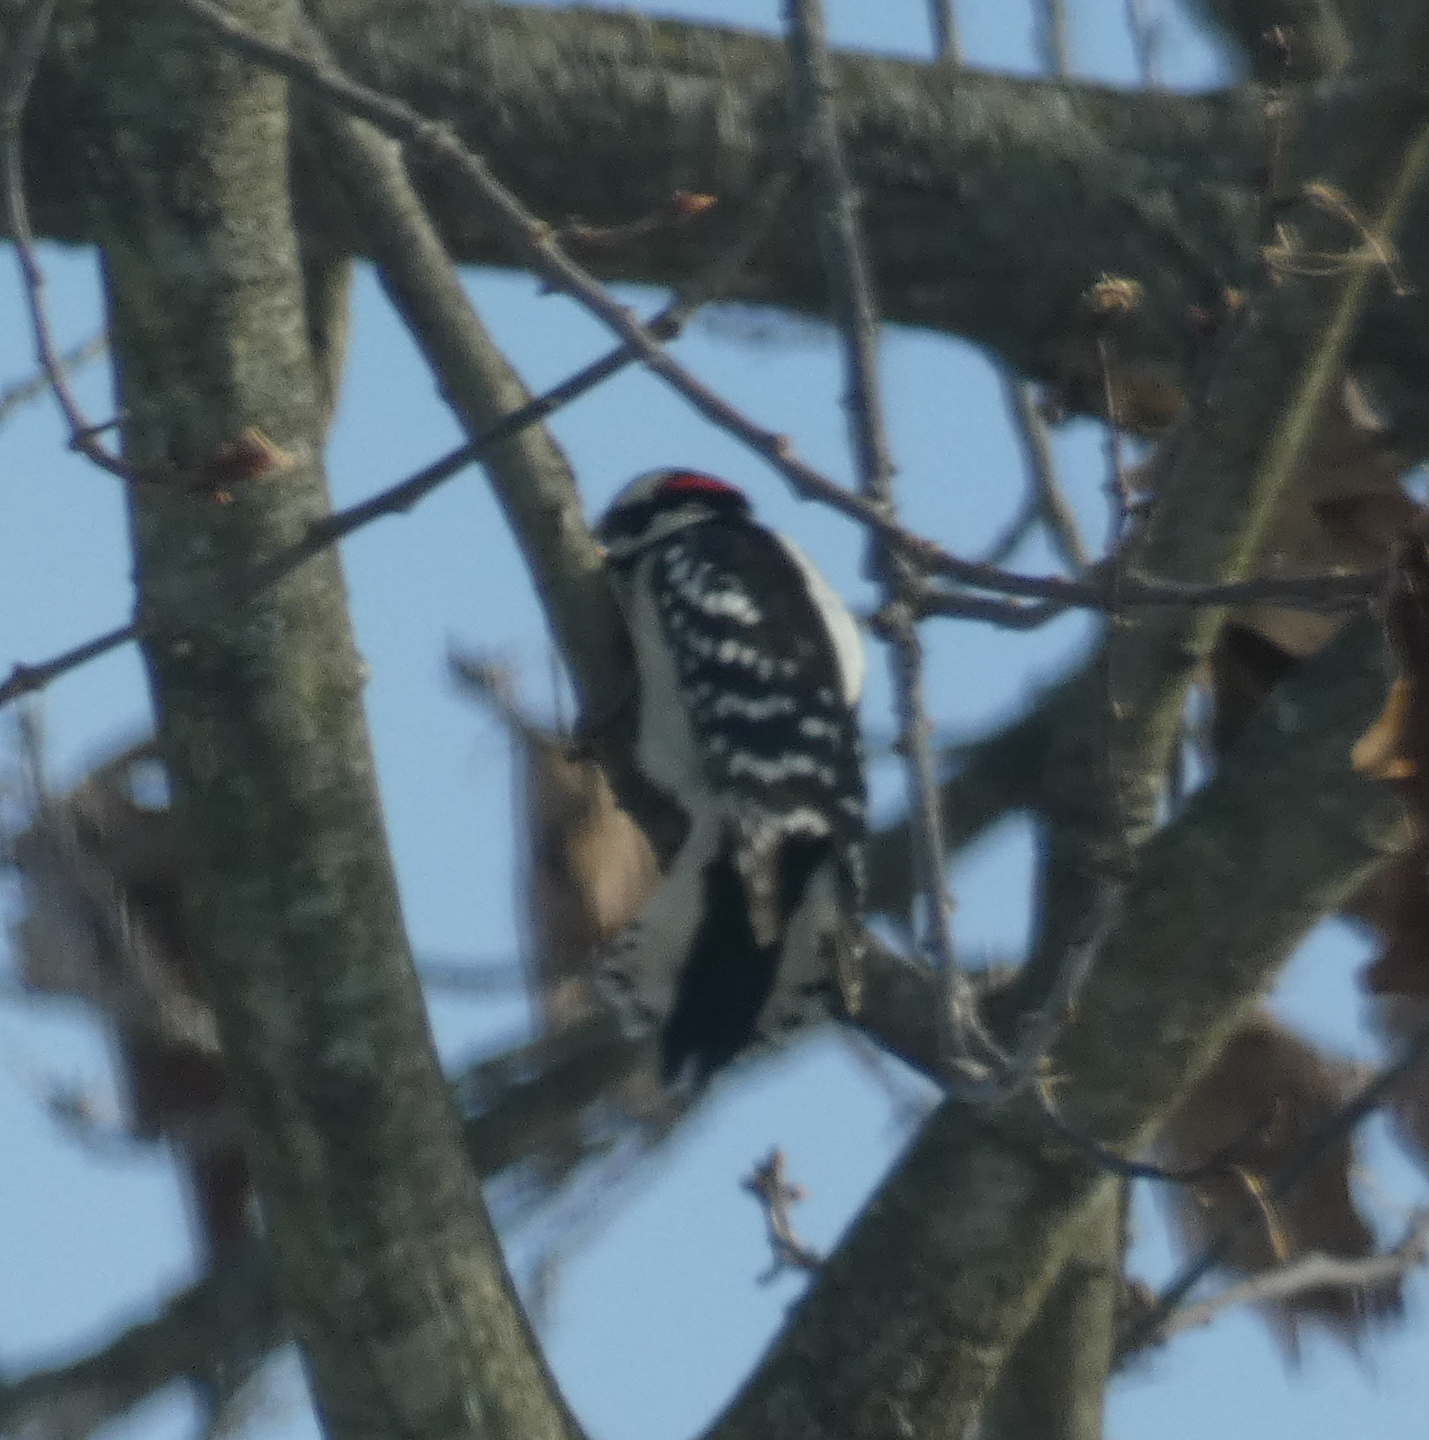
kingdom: Animalia
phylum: Chordata
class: Aves
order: Piciformes
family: Picidae
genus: Dryobates
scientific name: Dryobates pubescens
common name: Downy woodpecker
